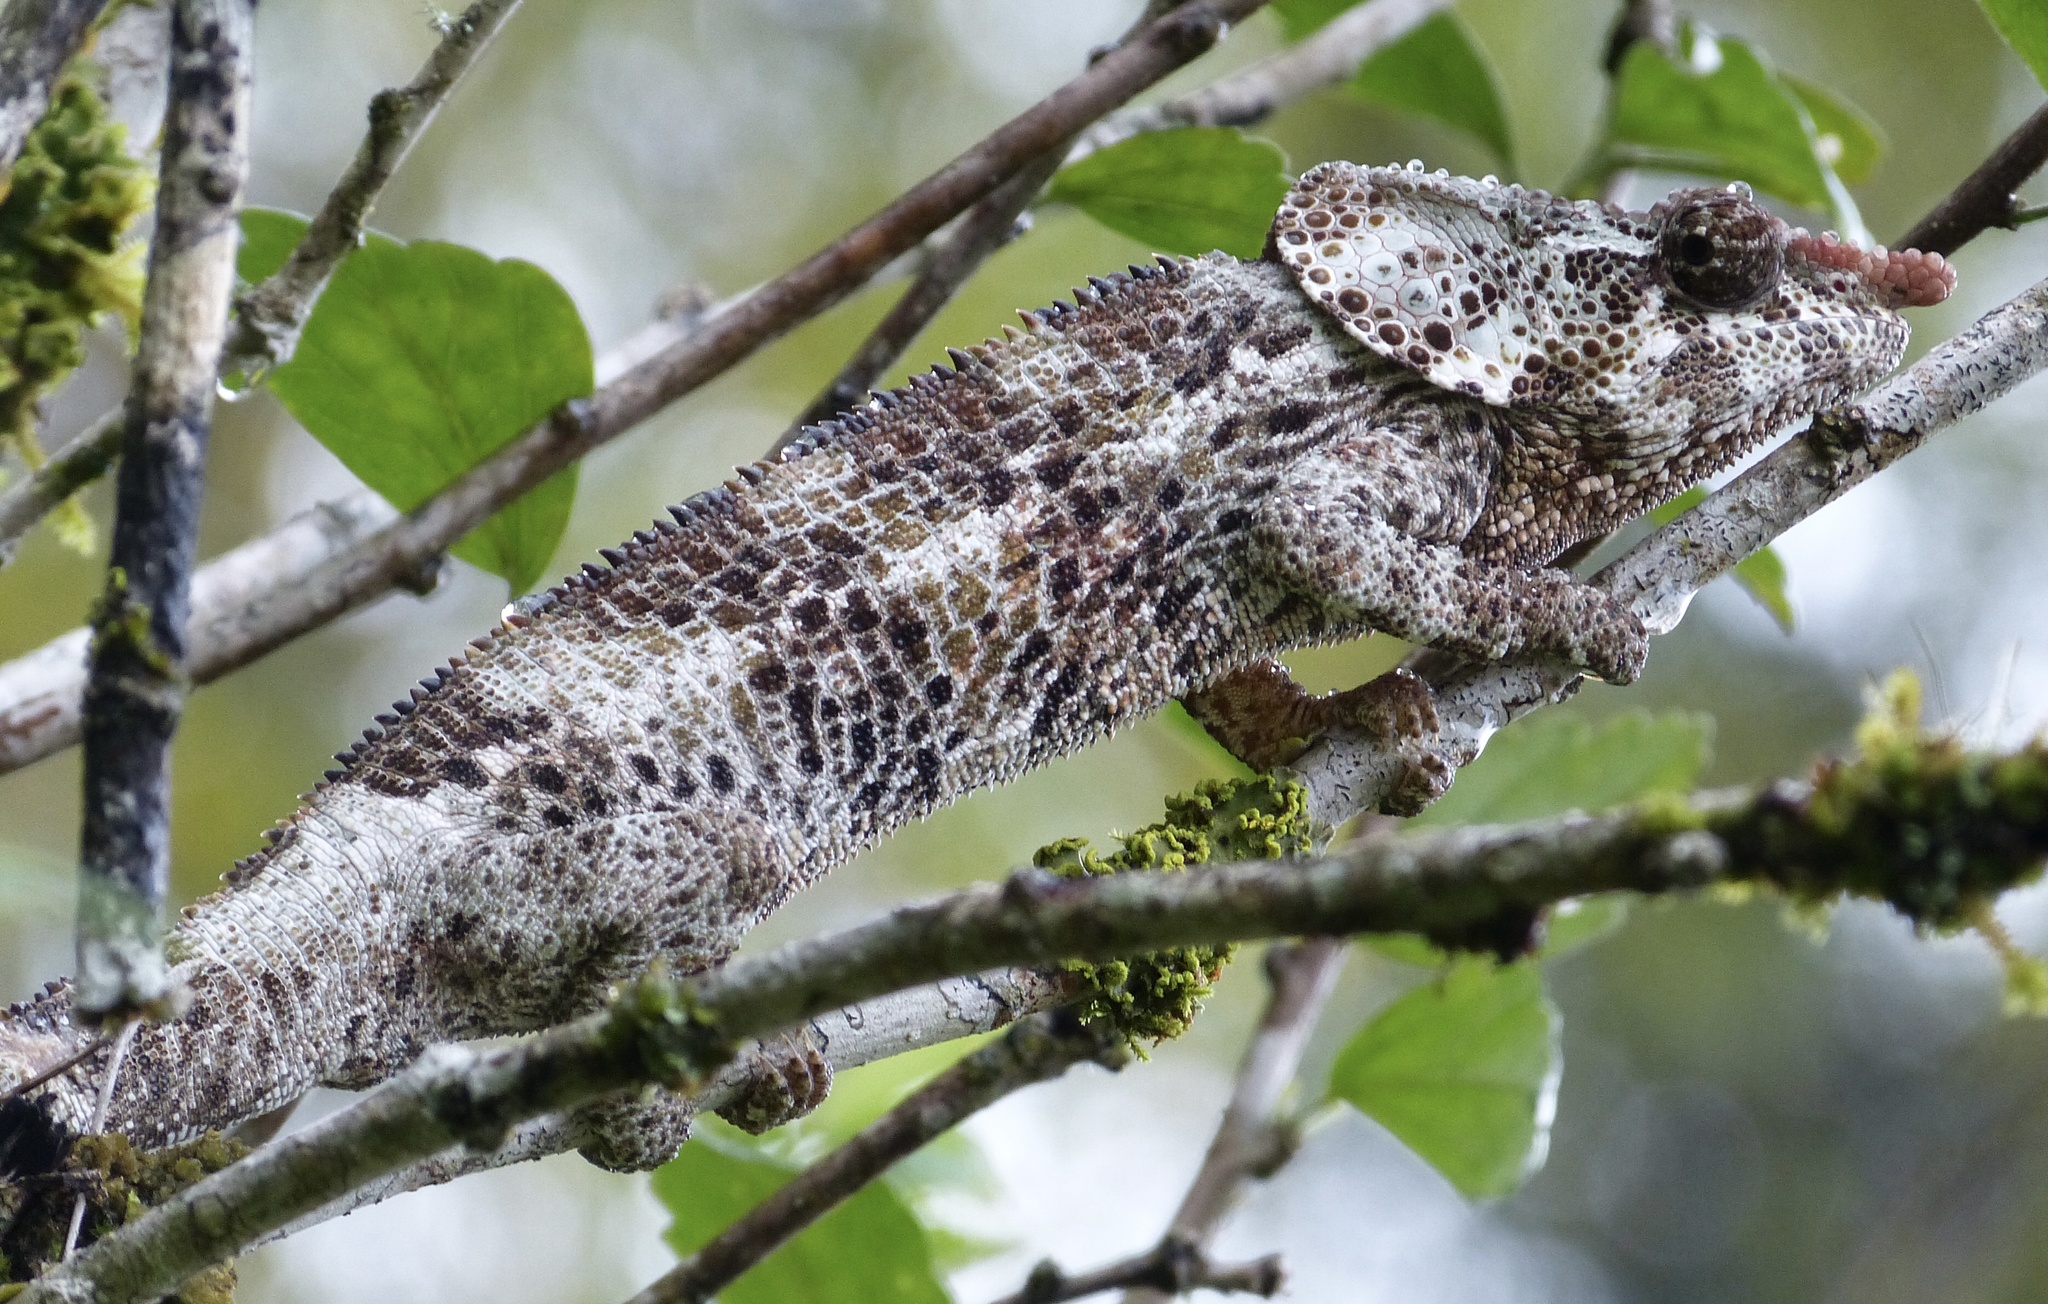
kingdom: Animalia
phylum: Chordata
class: Squamata
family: Chamaeleonidae
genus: Calumma
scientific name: Calumma brevicorne
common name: Short-horned chameleon
